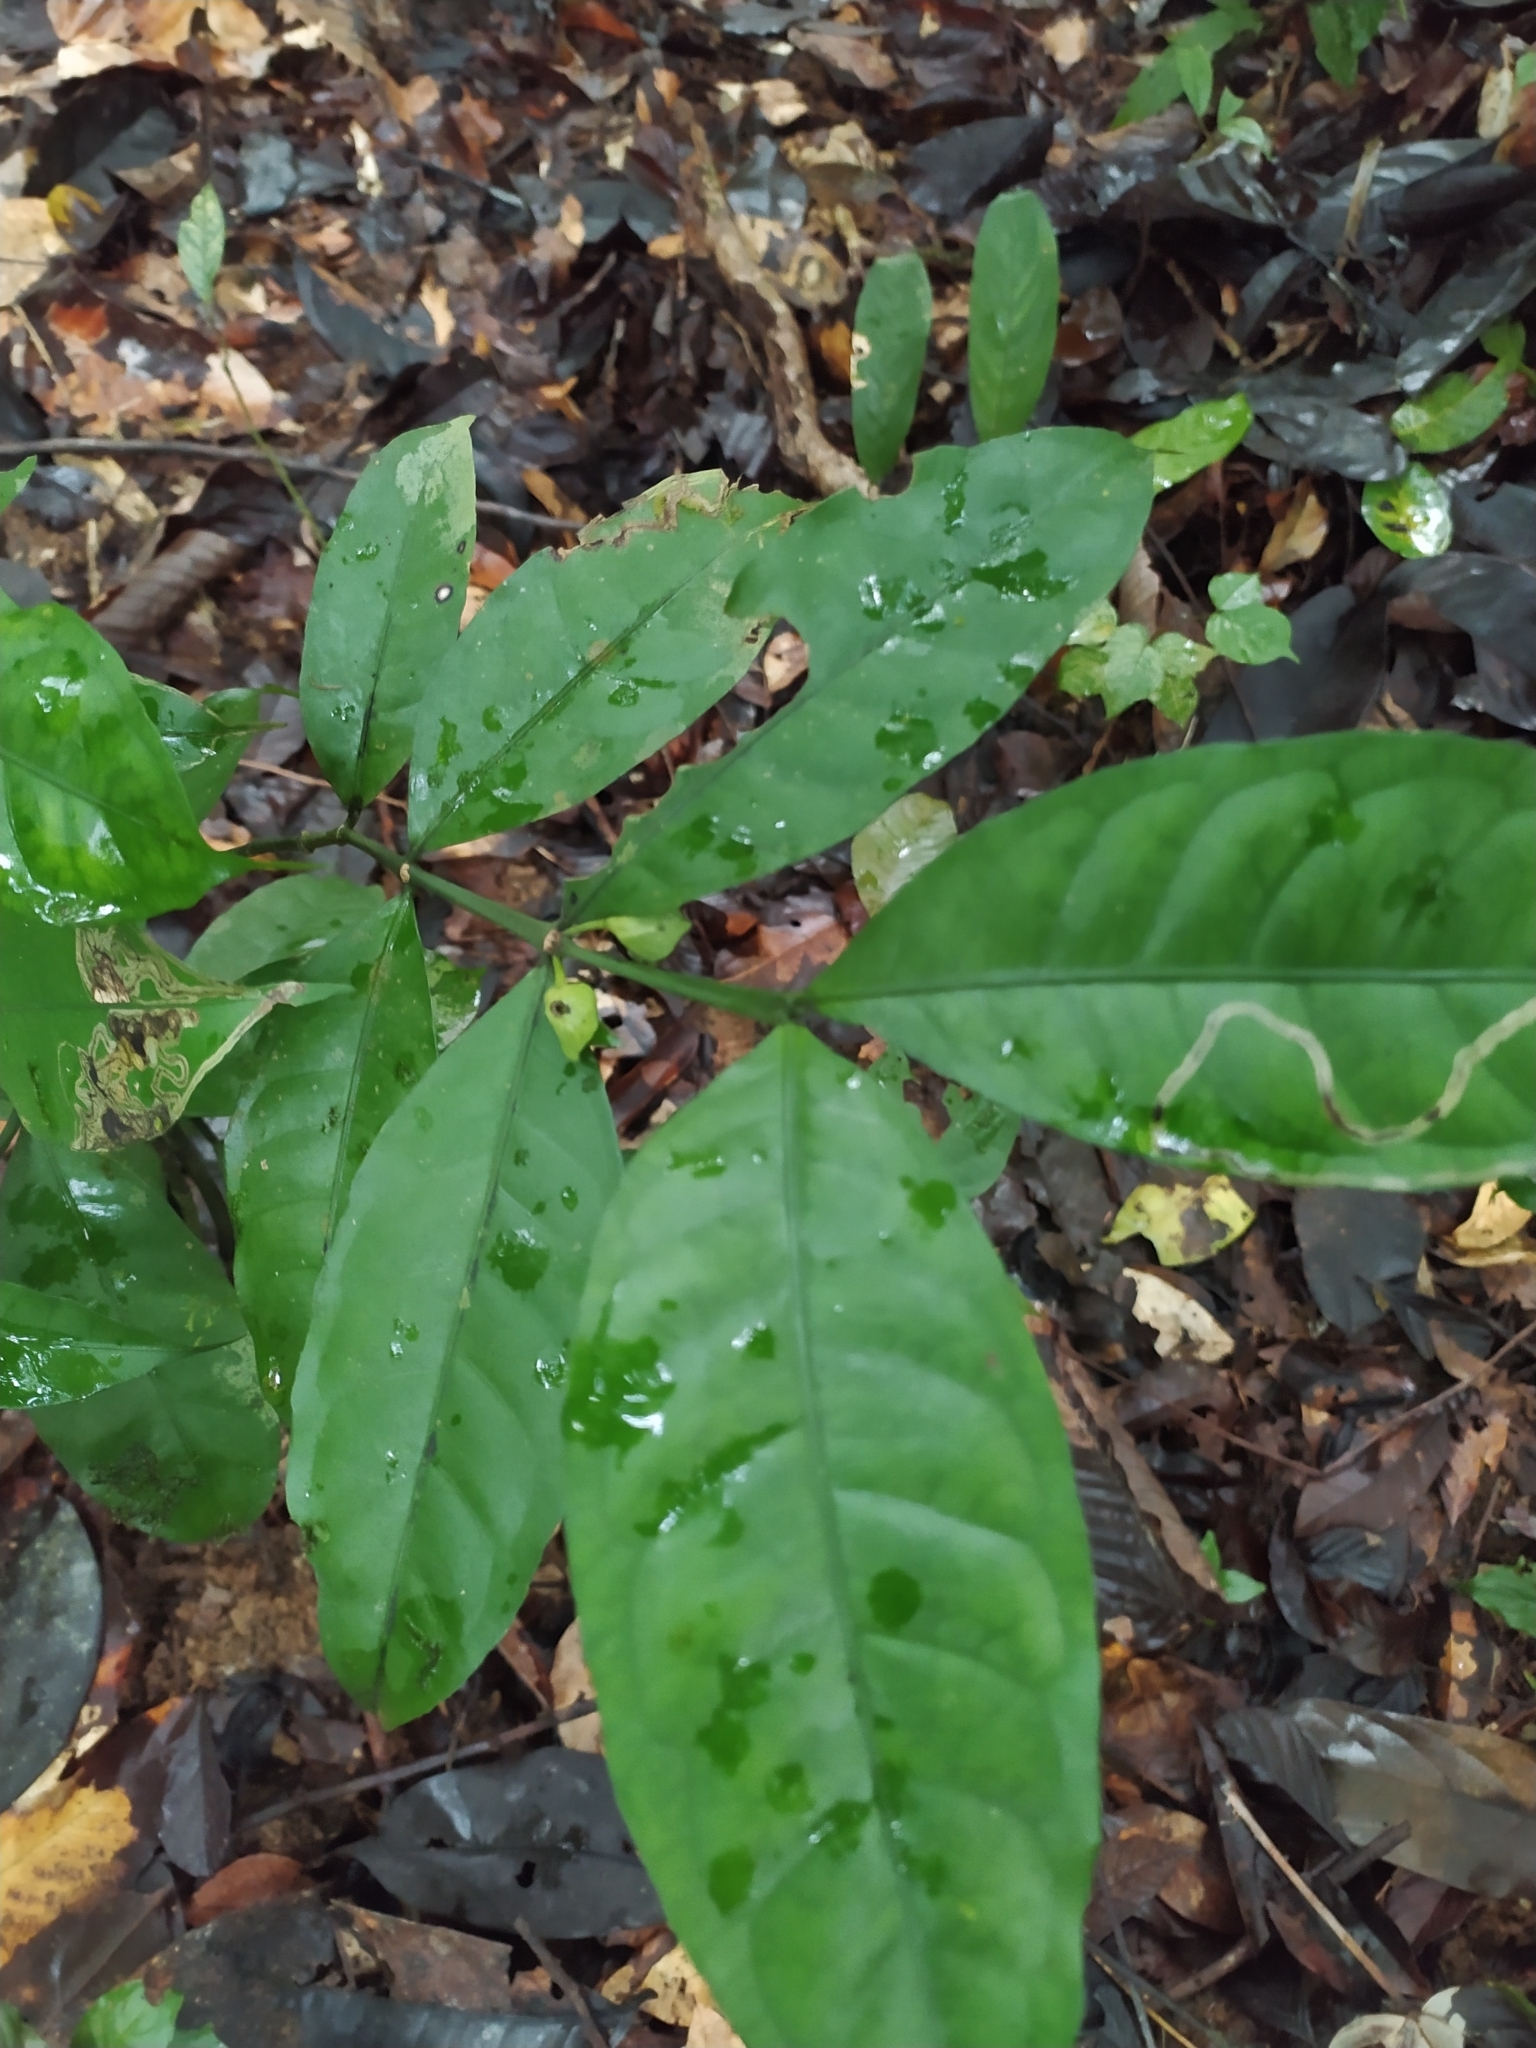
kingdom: Plantae
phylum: Tracheophyta
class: Magnoliopsida
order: Gentianales
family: Rubiaceae
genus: Faramea
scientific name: Faramea guianensis
